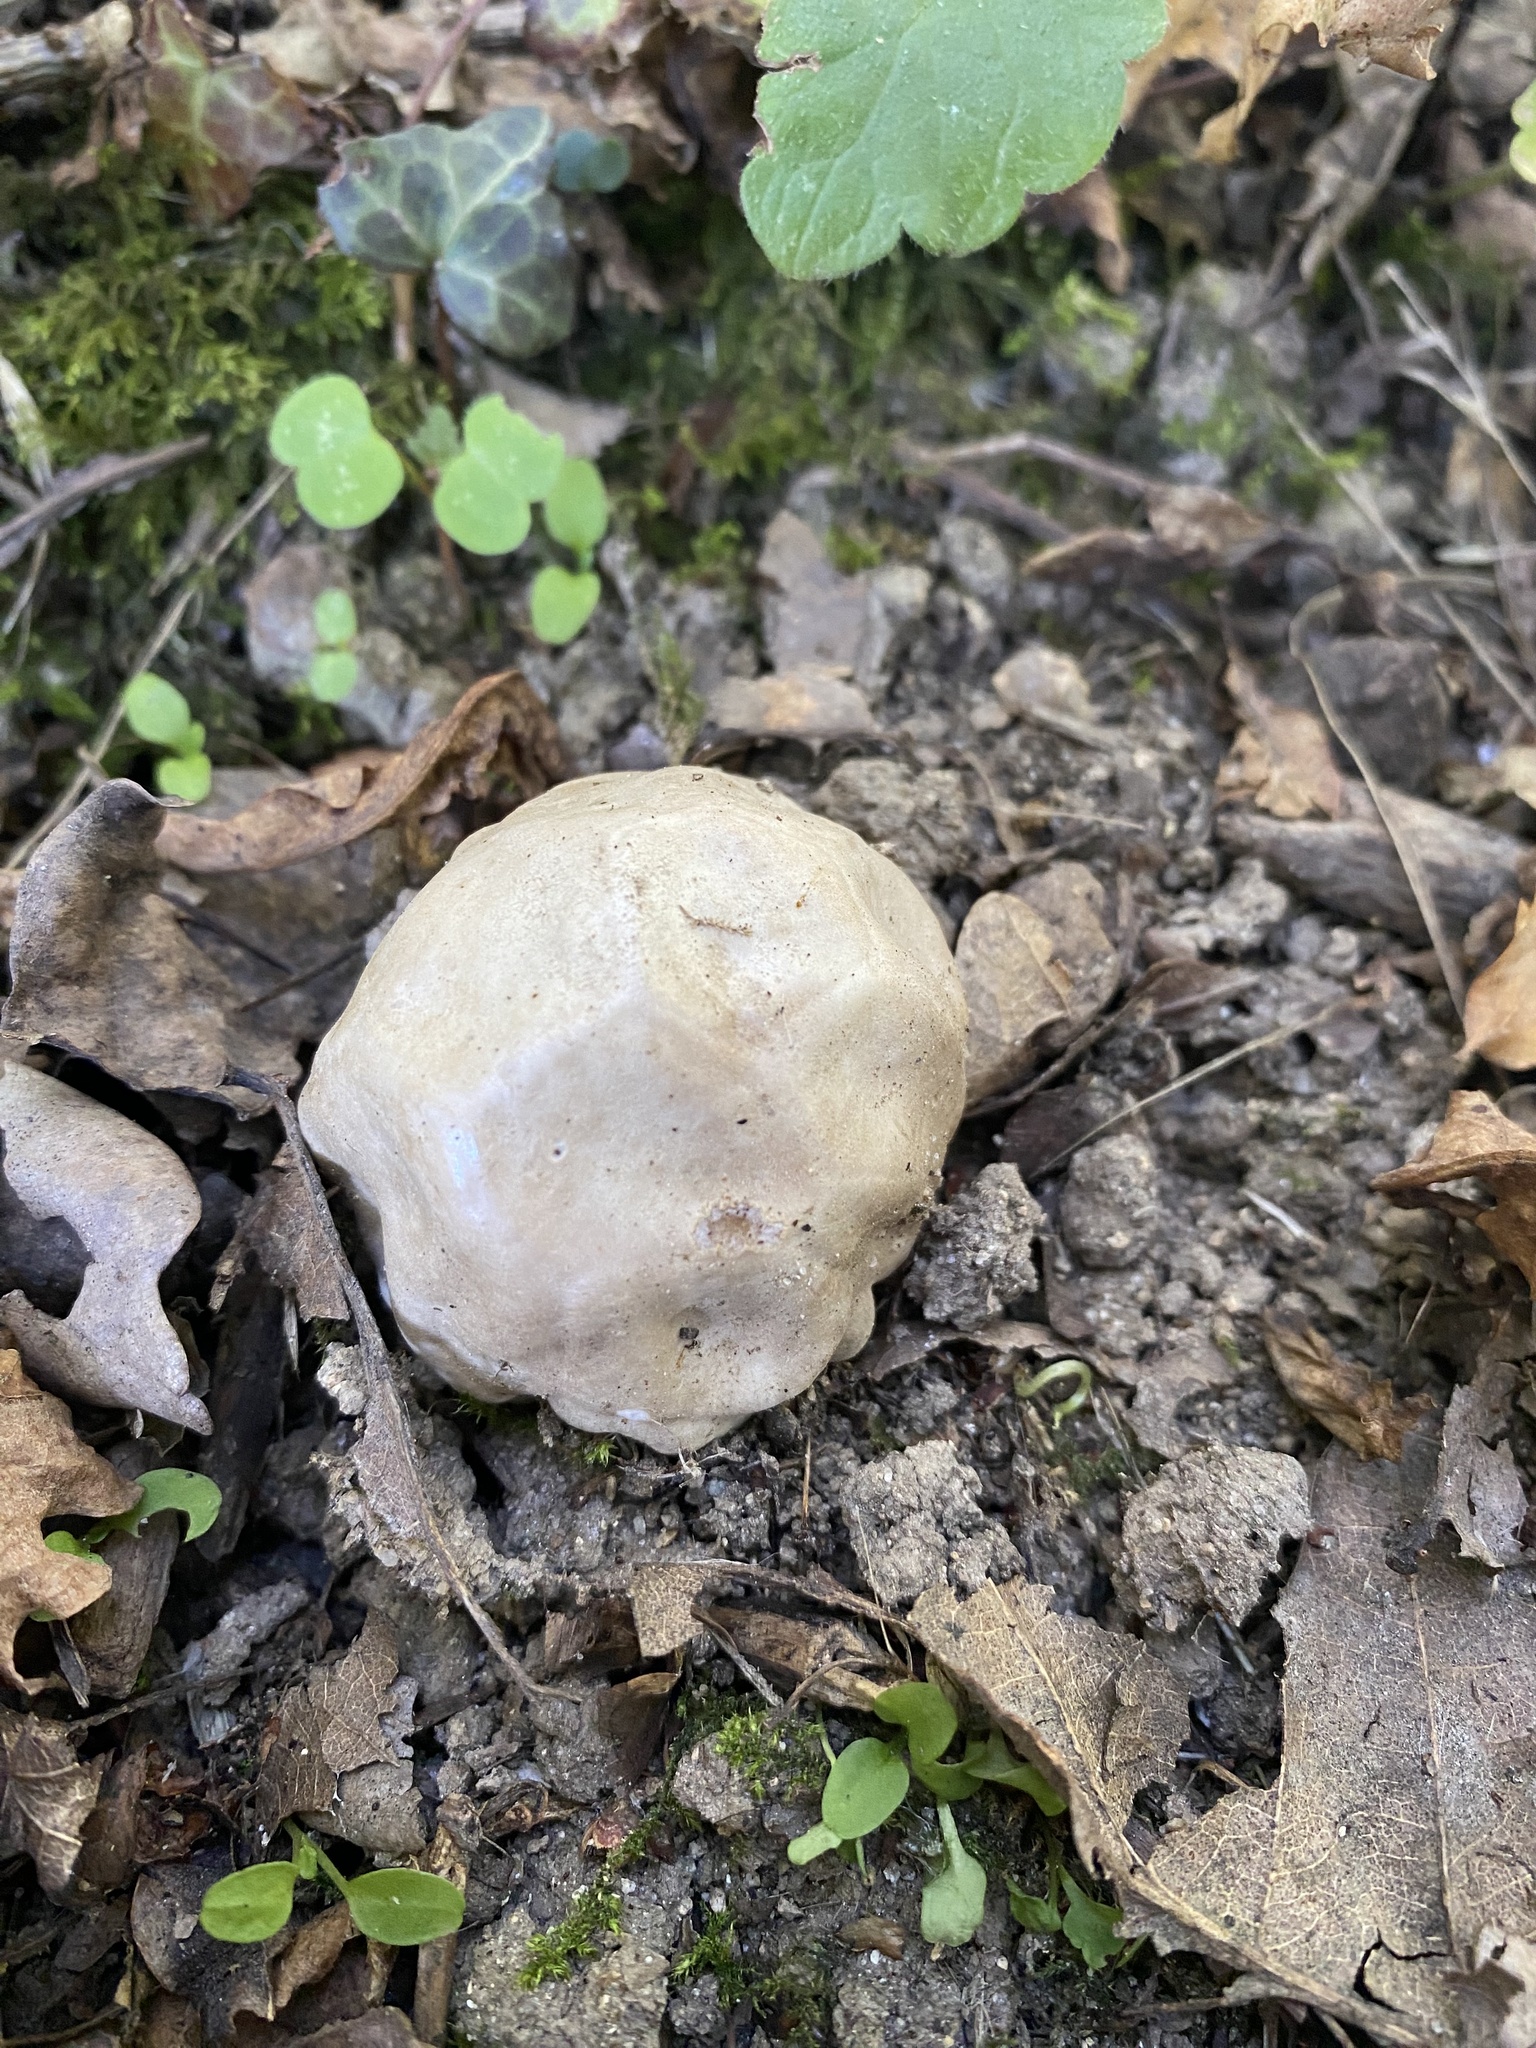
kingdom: Fungi
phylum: Basidiomycota
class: Agaricomycetes
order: Phallales
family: Phallaceae
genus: Clathrus
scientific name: Clathrus ruber
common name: Red cage
